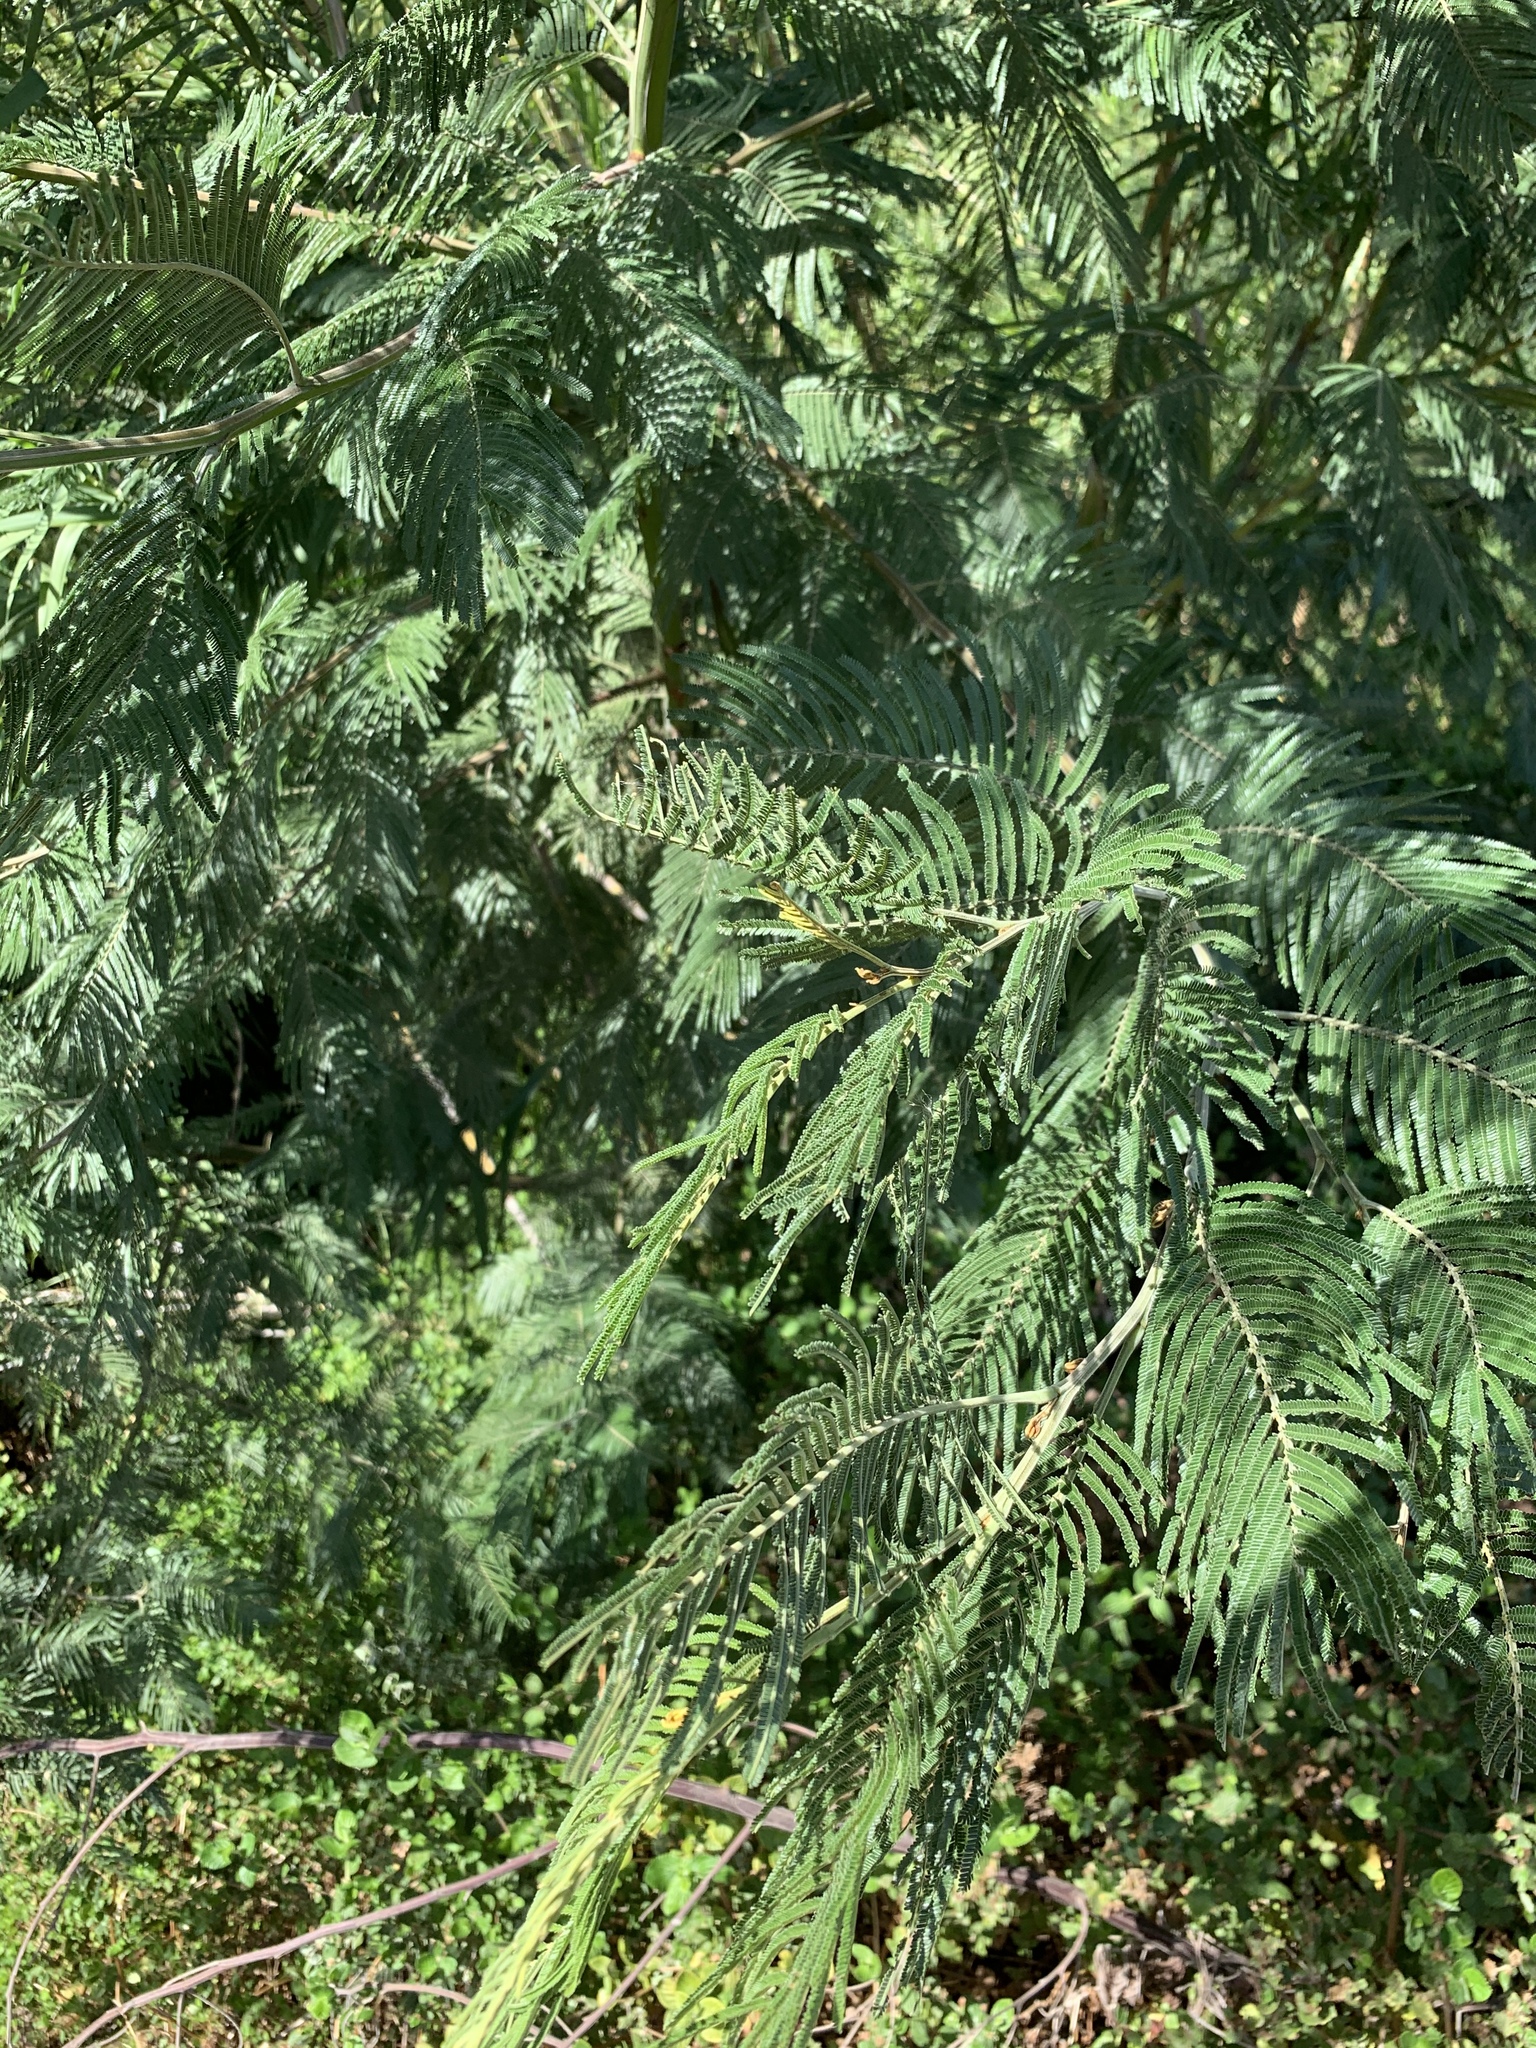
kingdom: Plantae
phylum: Tracheophyta
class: Magnoliopsida
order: Fabales
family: Fabaceae
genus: Acacia
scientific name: Acacia mearnsii
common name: Black wattle
